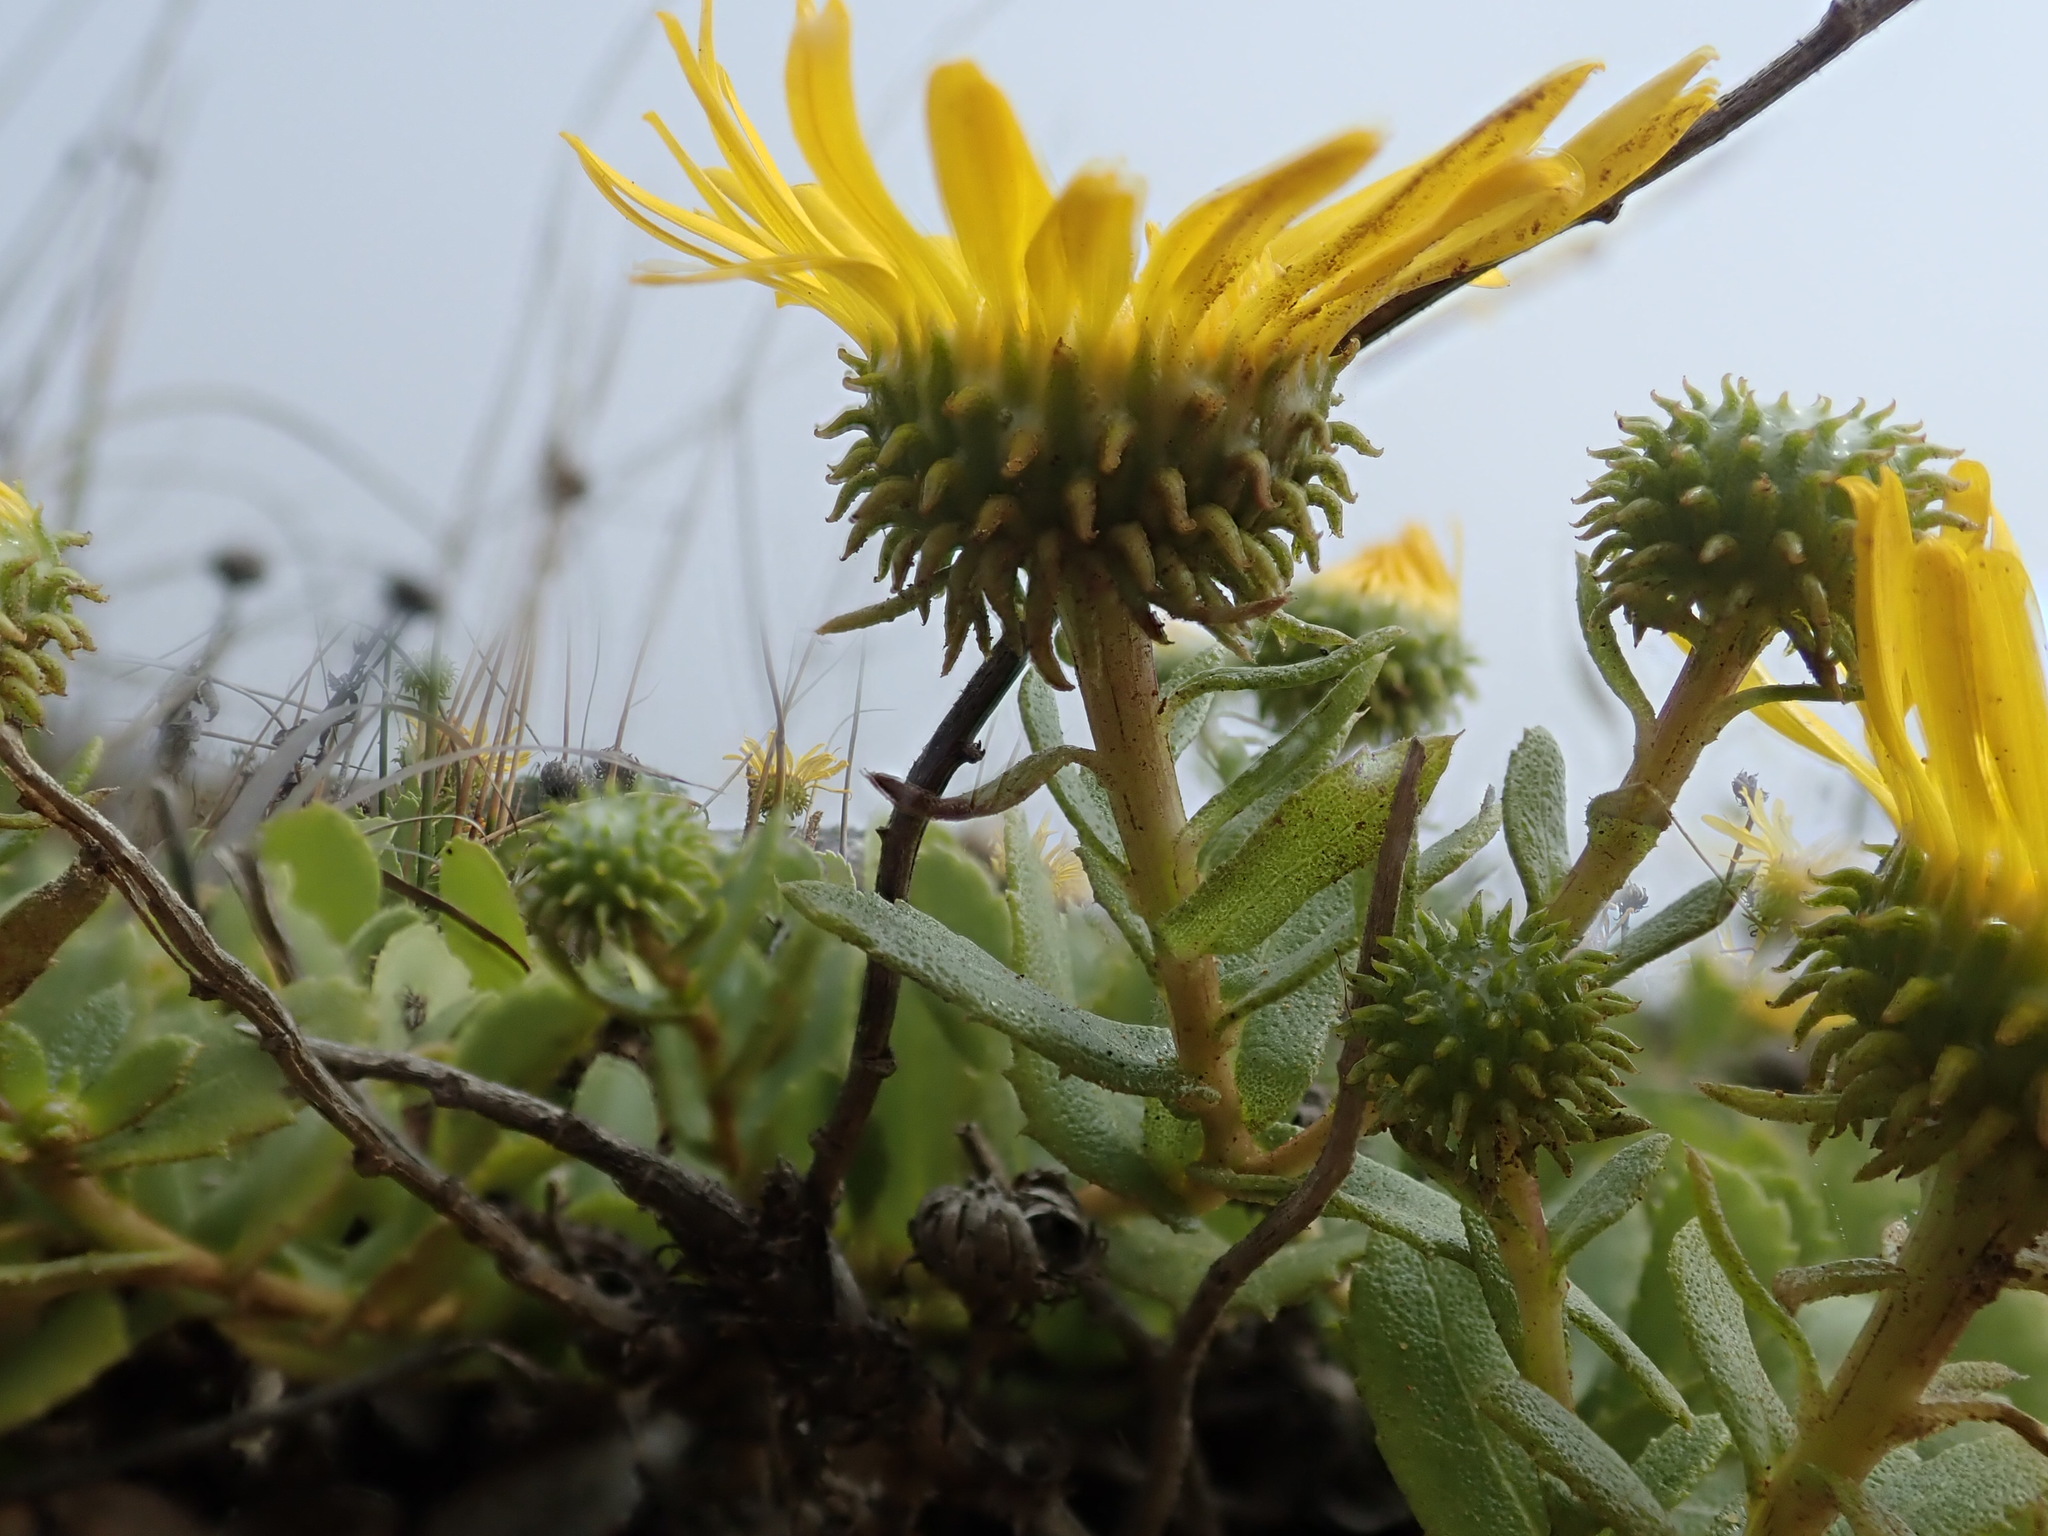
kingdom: Plantae
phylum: Tracheophyta
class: Magnoliopsida
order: Asterales
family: Asteraceae
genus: Grindelia
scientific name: Grindelia hirsutula
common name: Hairy gumweed
